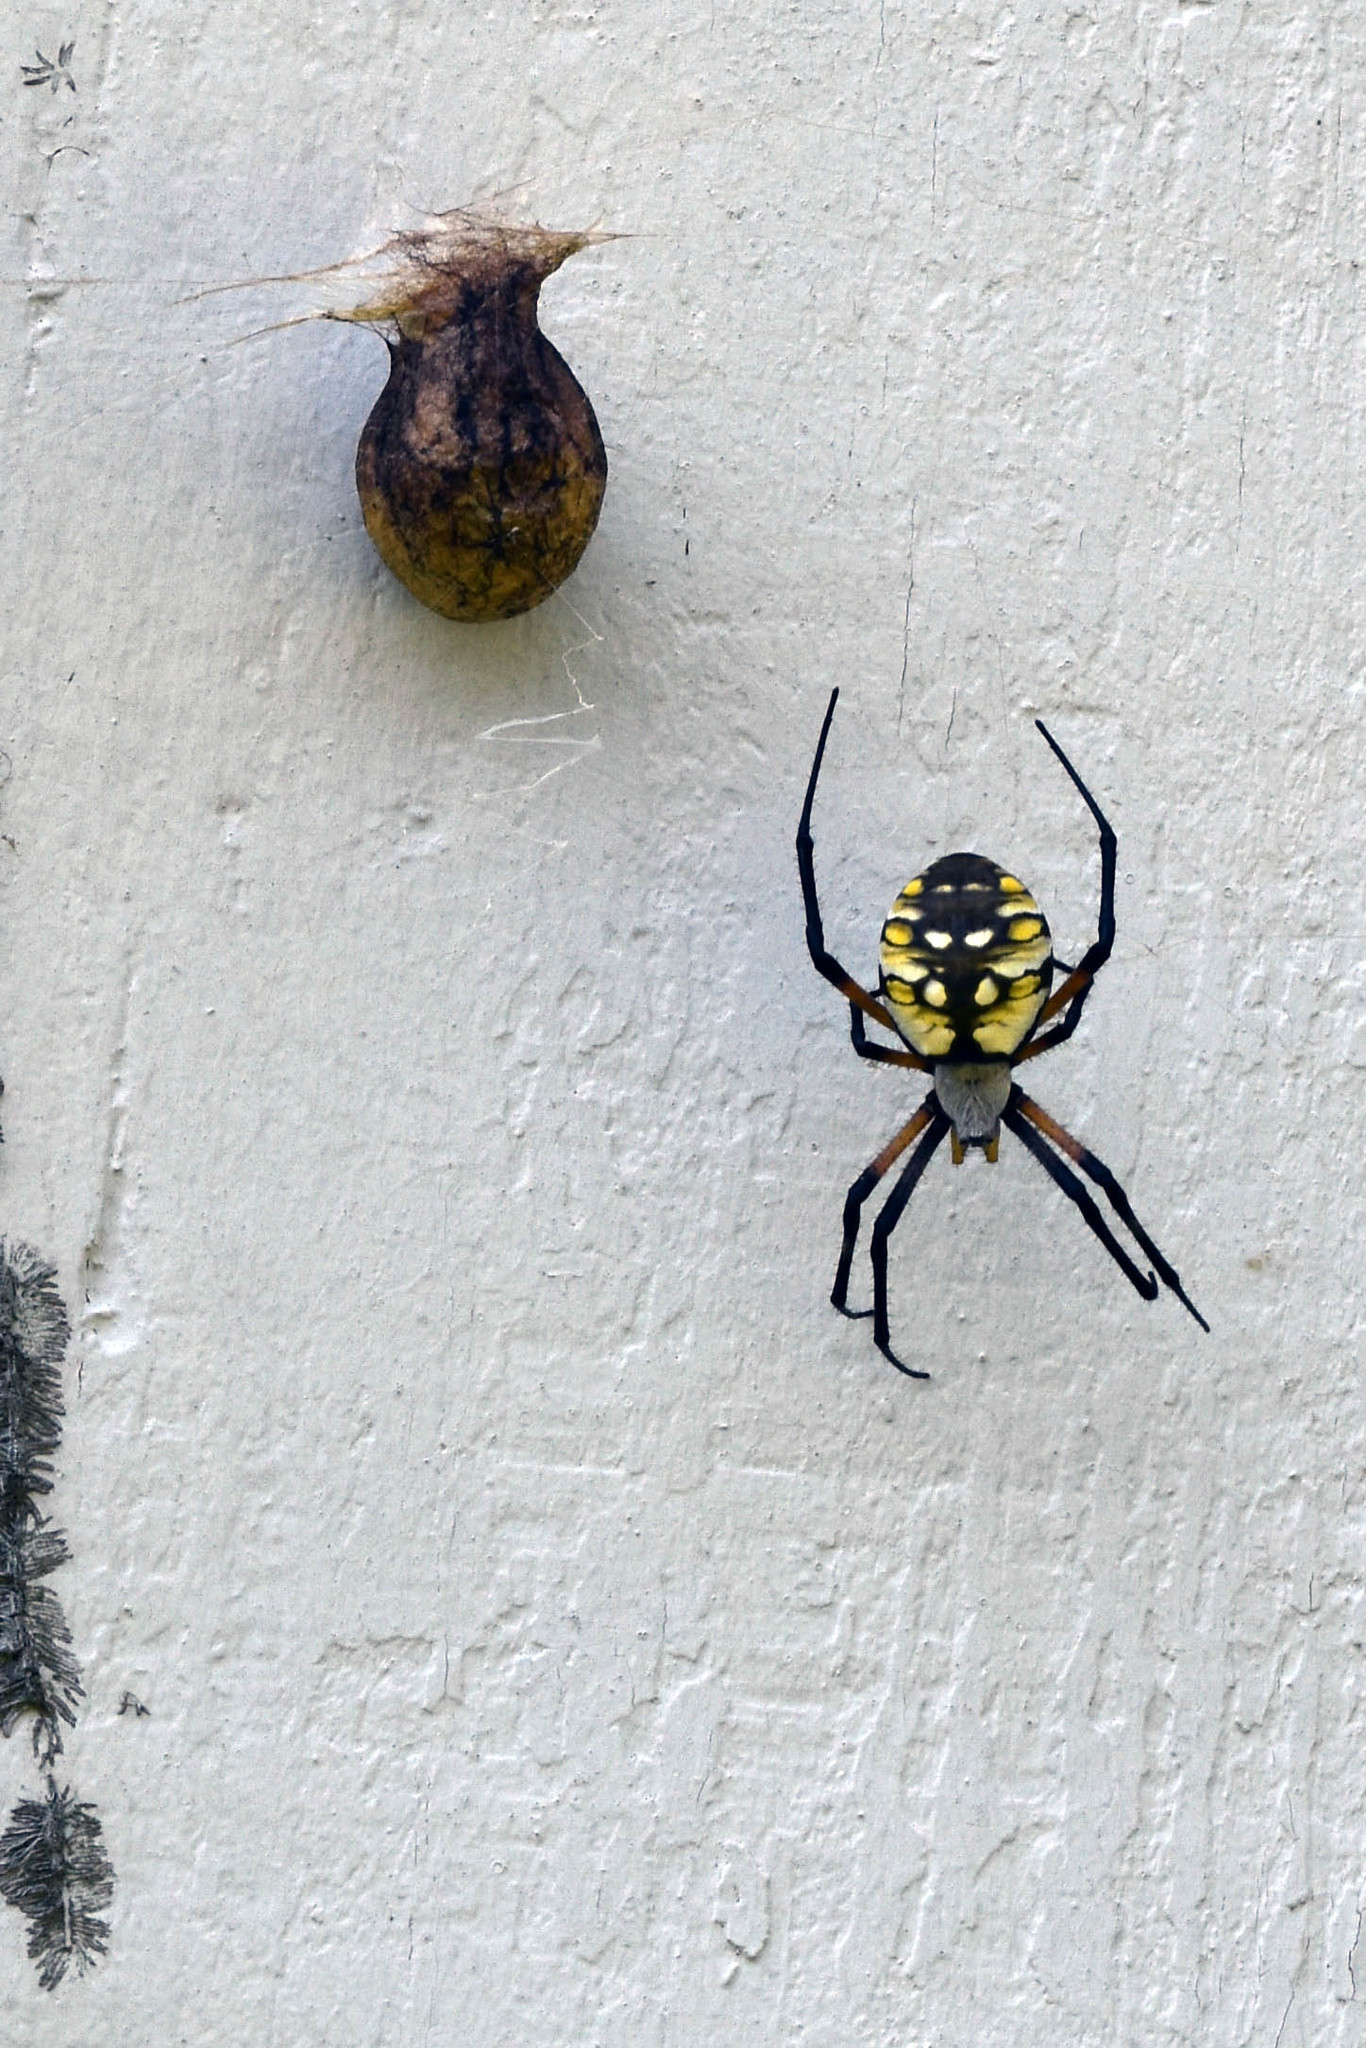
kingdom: Animalia
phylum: Arthropoda
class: Arachnida
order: Araneae
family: Araneidae
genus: Argiope
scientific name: Argiope aurantia
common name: Orb weavers
